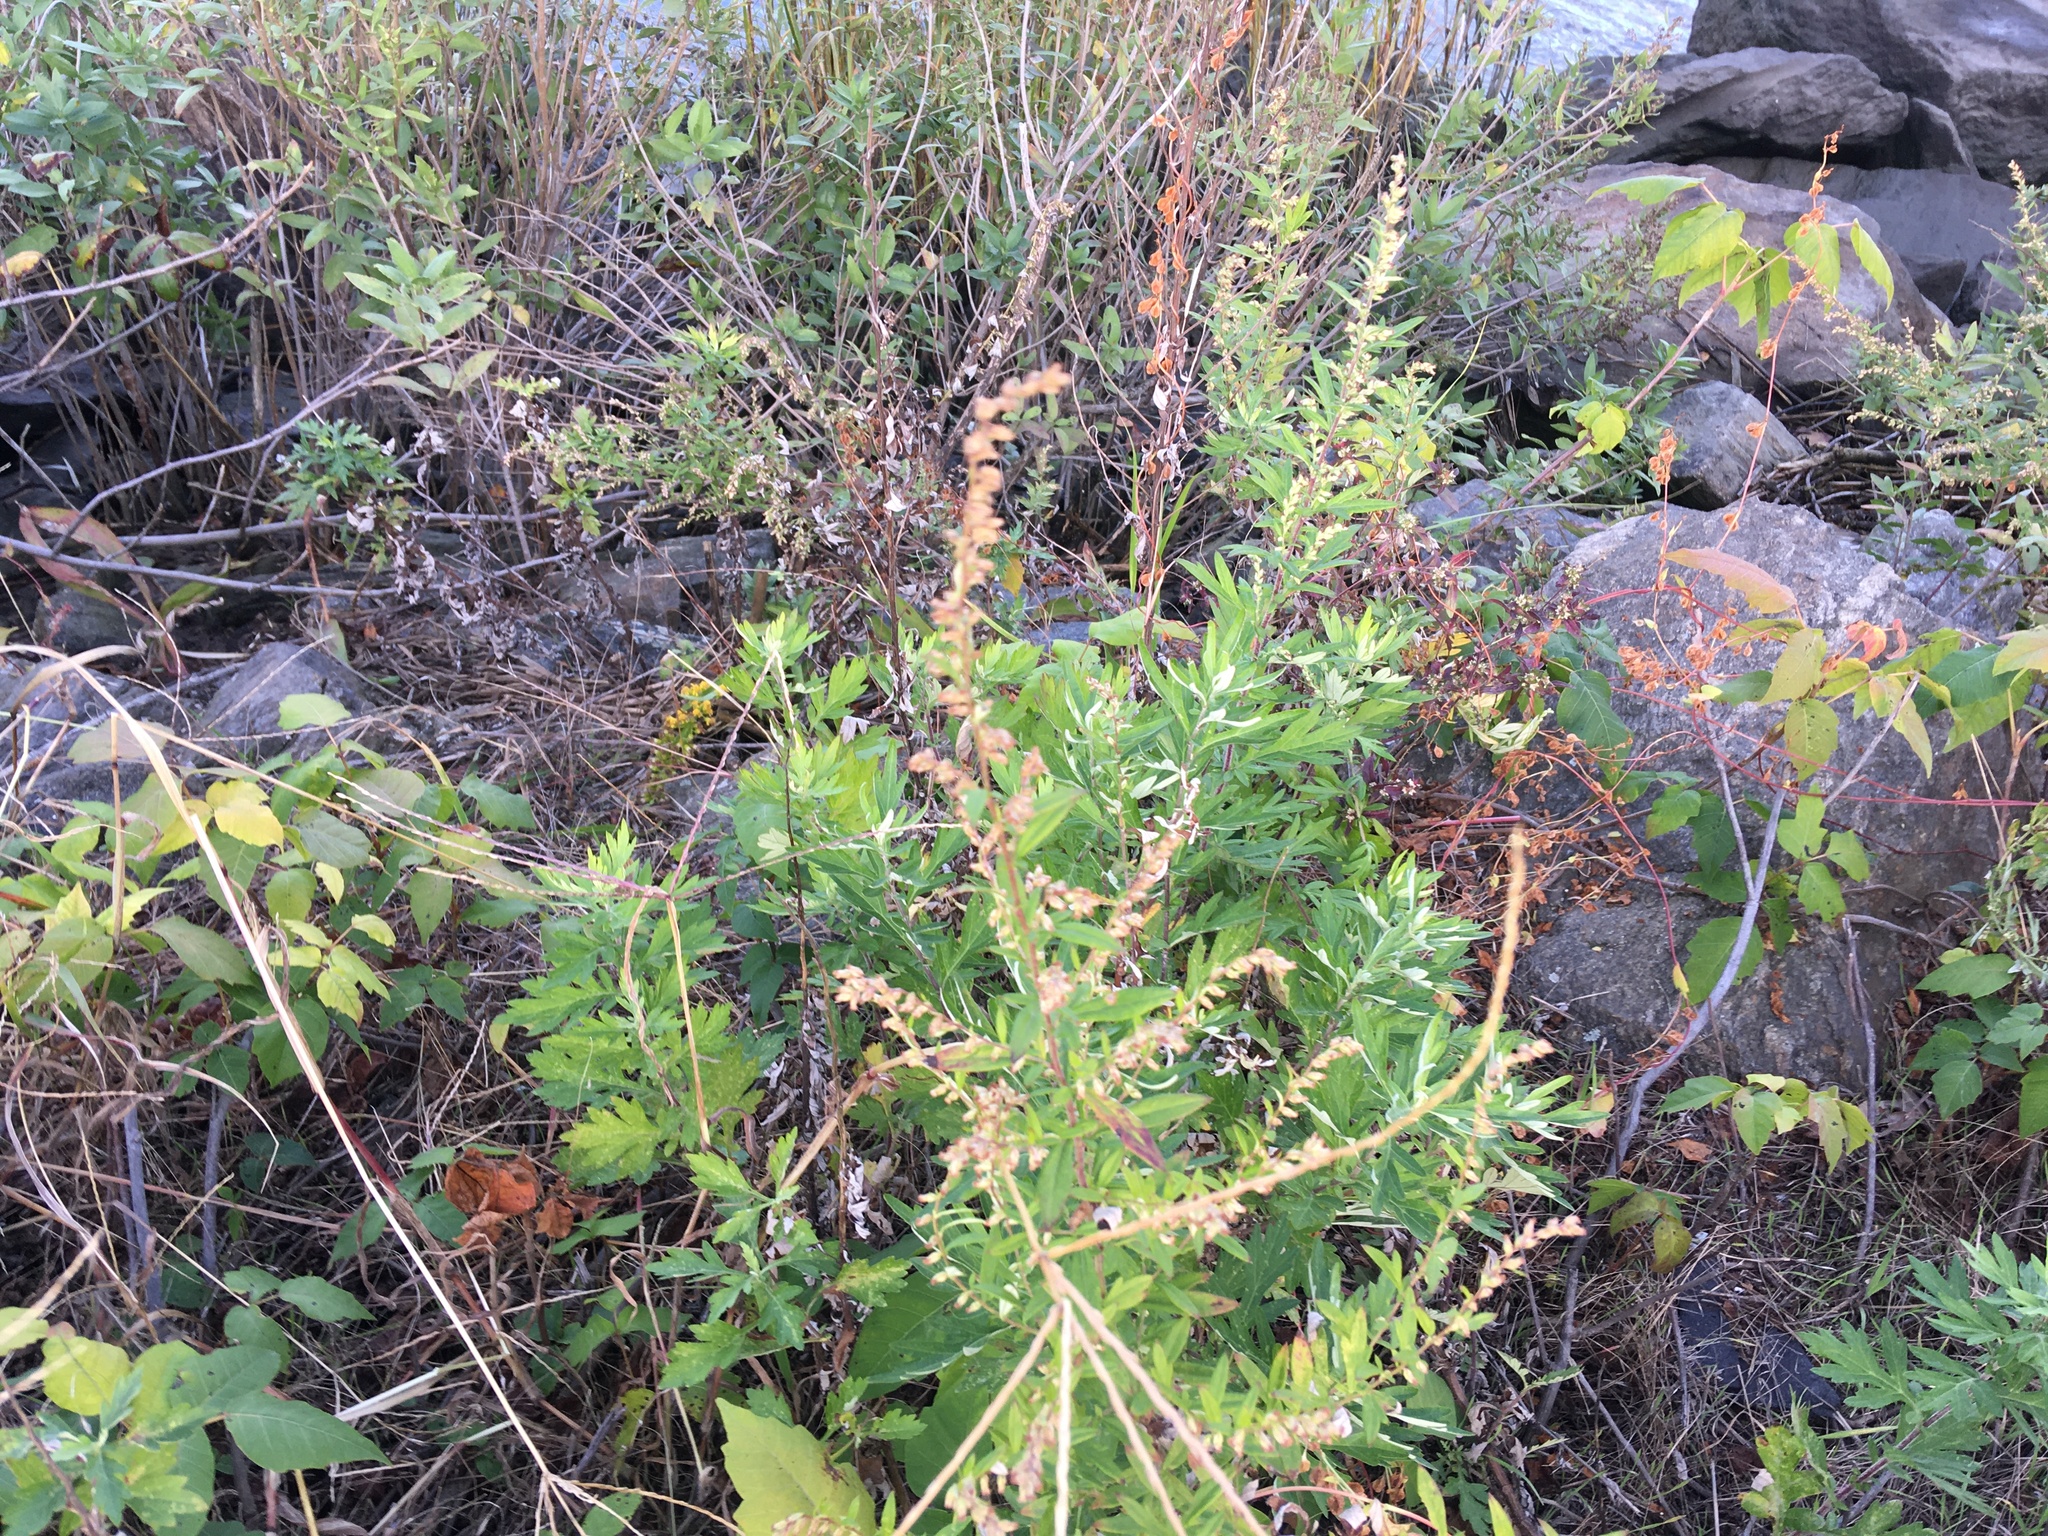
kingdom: Plantae
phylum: Tracheophyta
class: Magnoliopsida
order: Asterales
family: Asteraceae
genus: Artemisia
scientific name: Artemisia vulgaris
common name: Mugwort
